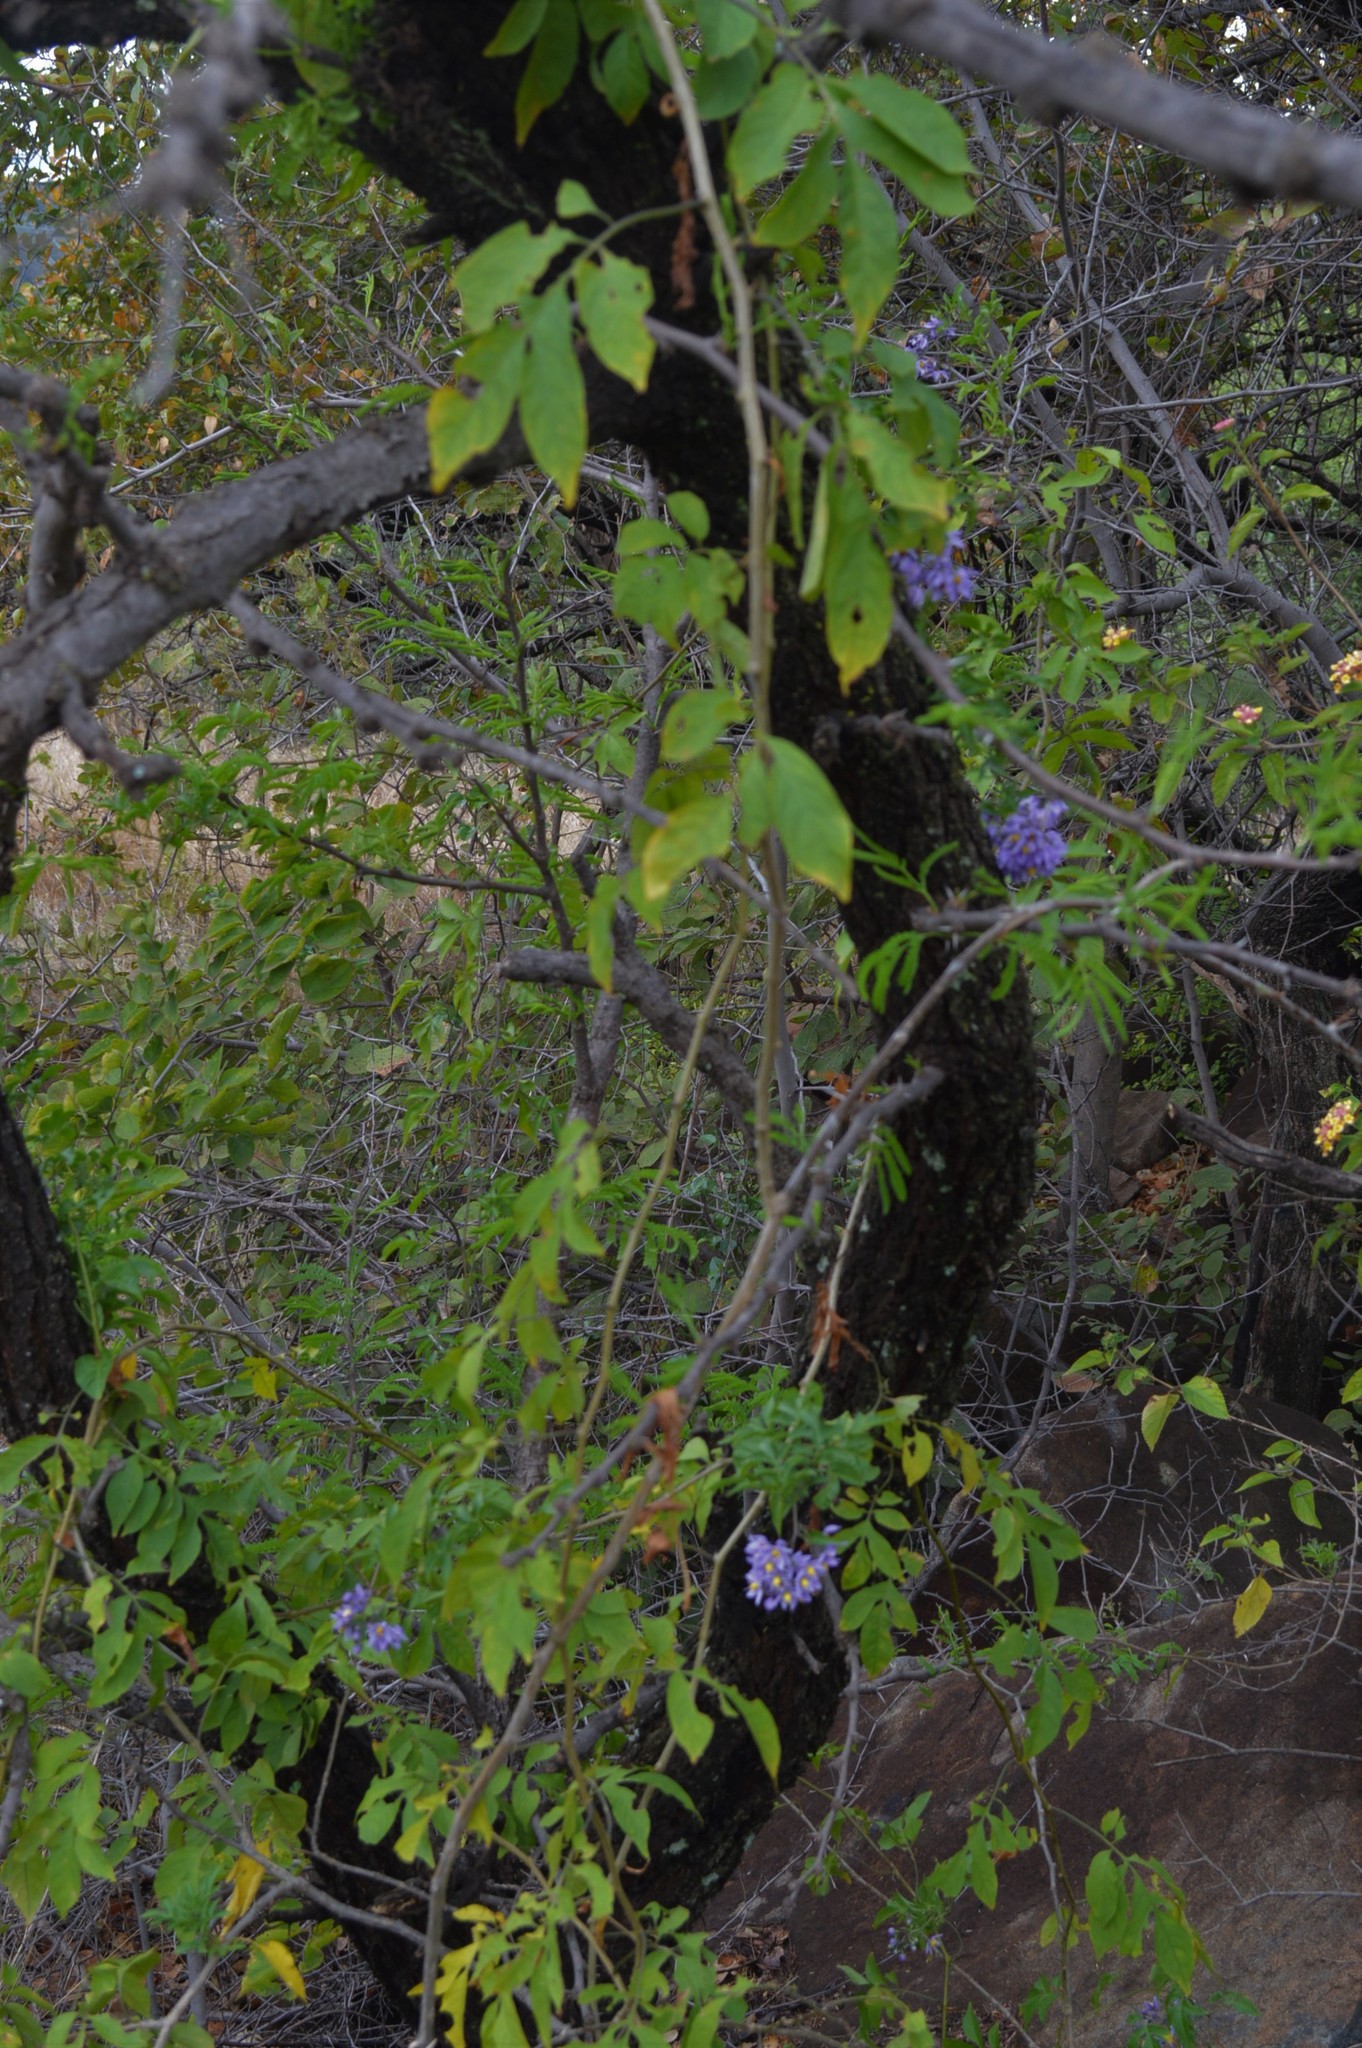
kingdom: Plantae
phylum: Tracheophyta
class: Magnoliopsida
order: Solanales
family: Solanaceae
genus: Solanum
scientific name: Solanum seaforthianum
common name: Brazilian nightshade
